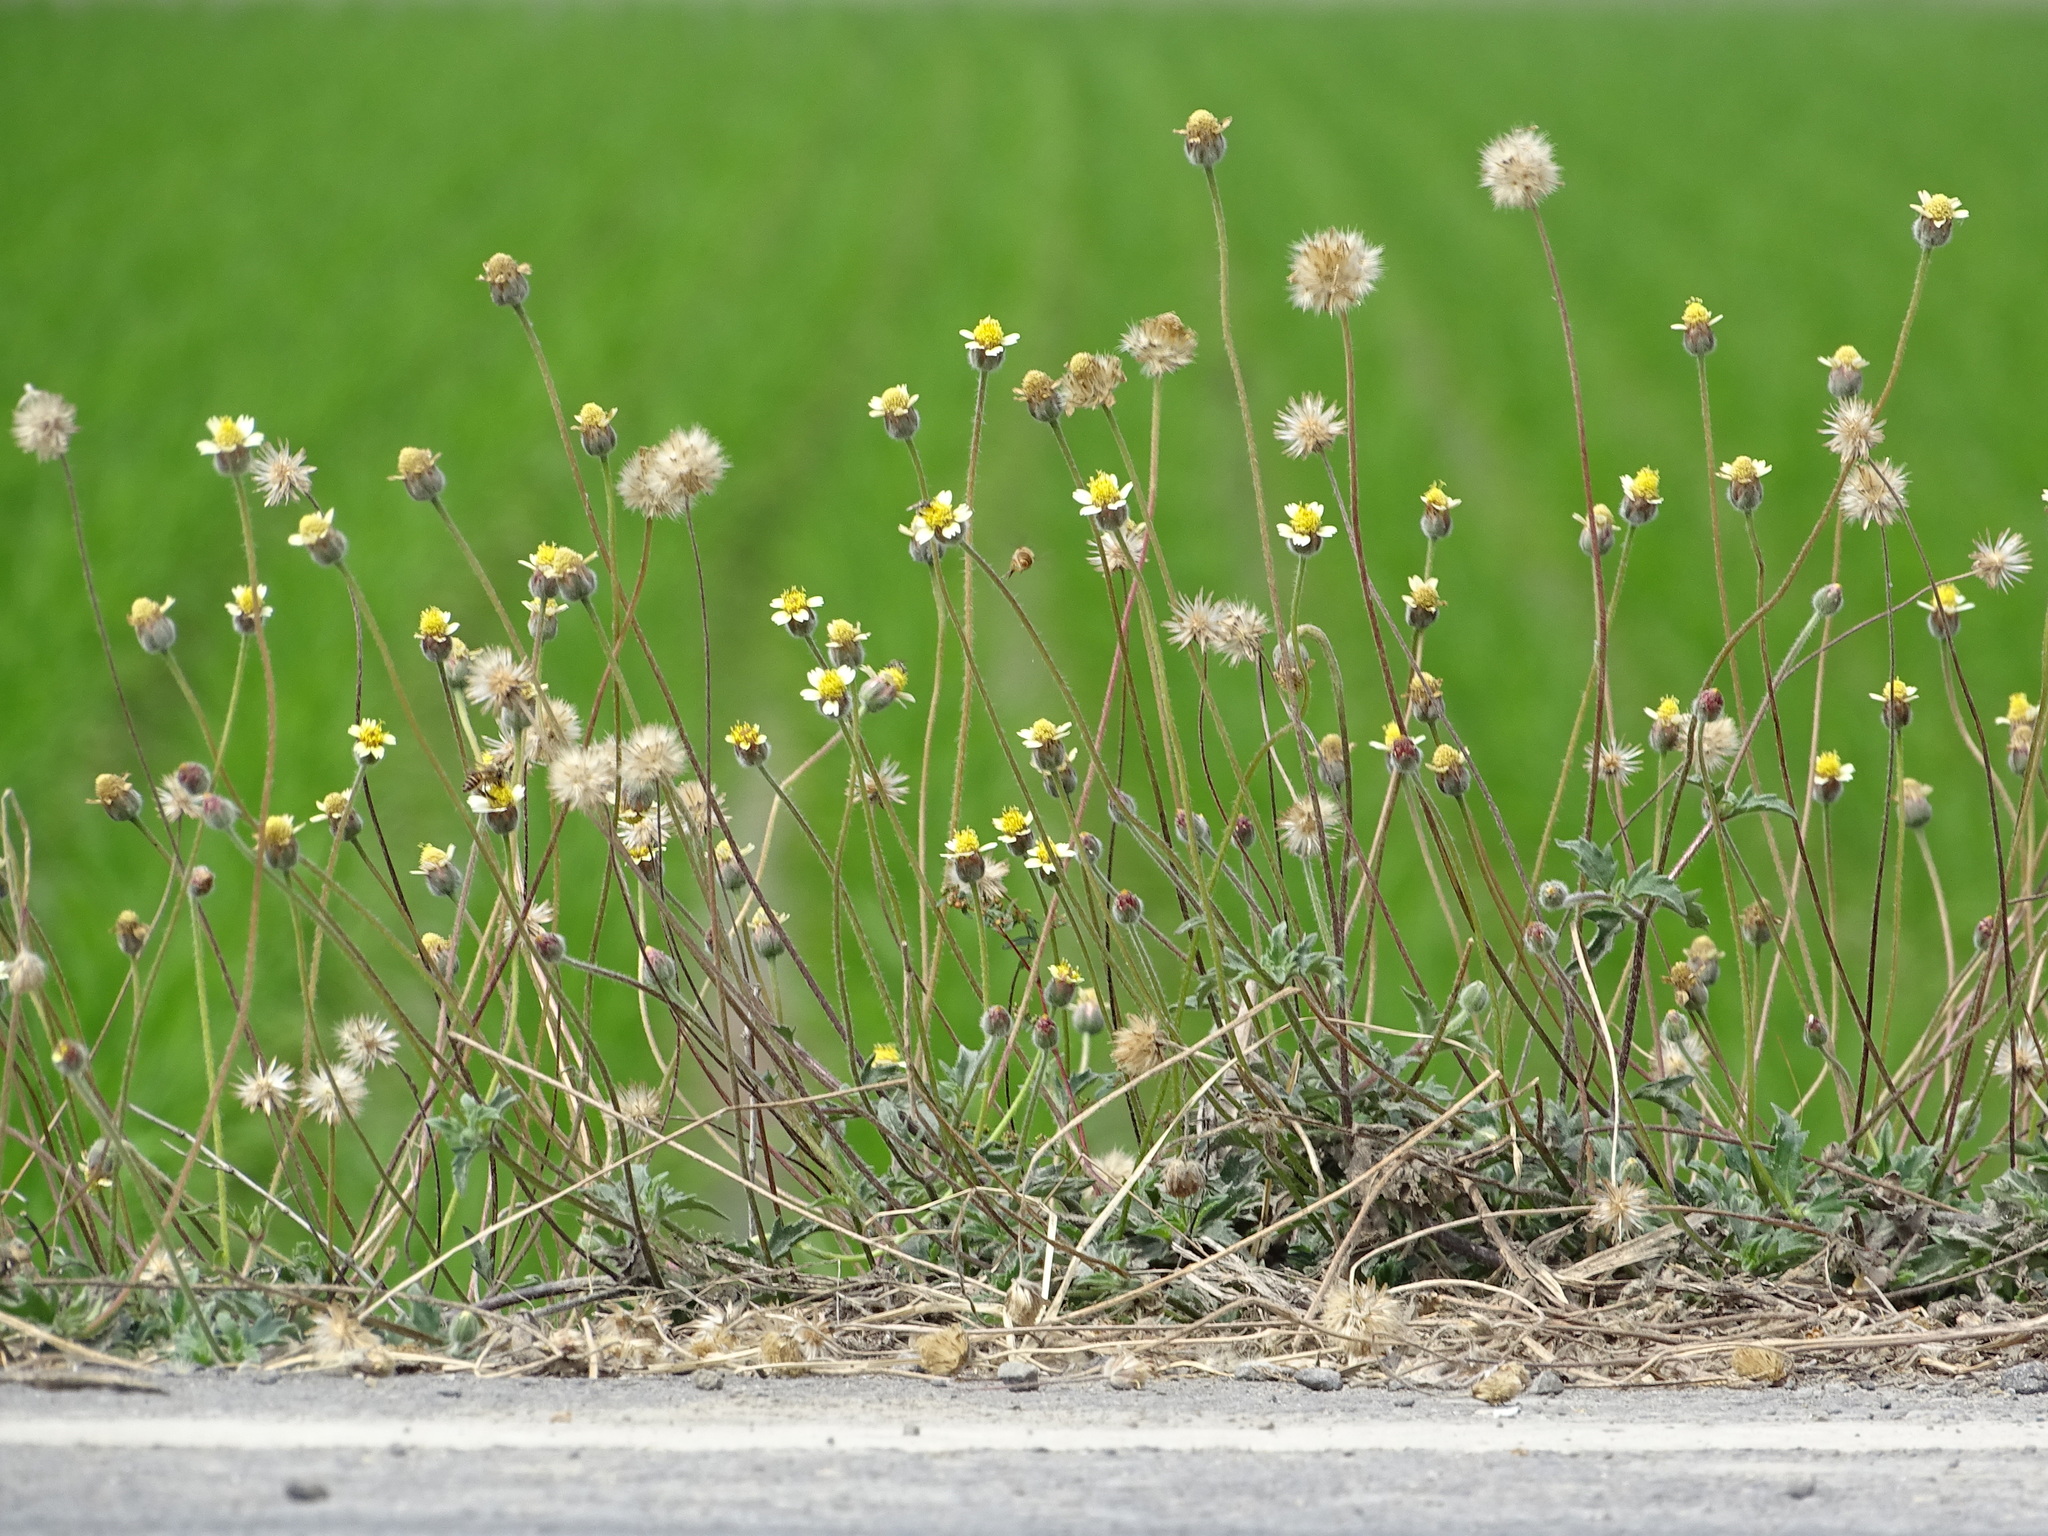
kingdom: Plantae
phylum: Tracheophyta
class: Magnoliopsida
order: Asterales
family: Asteraceae
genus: Tridax
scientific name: Tridax procumbens
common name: Coatbuttons
